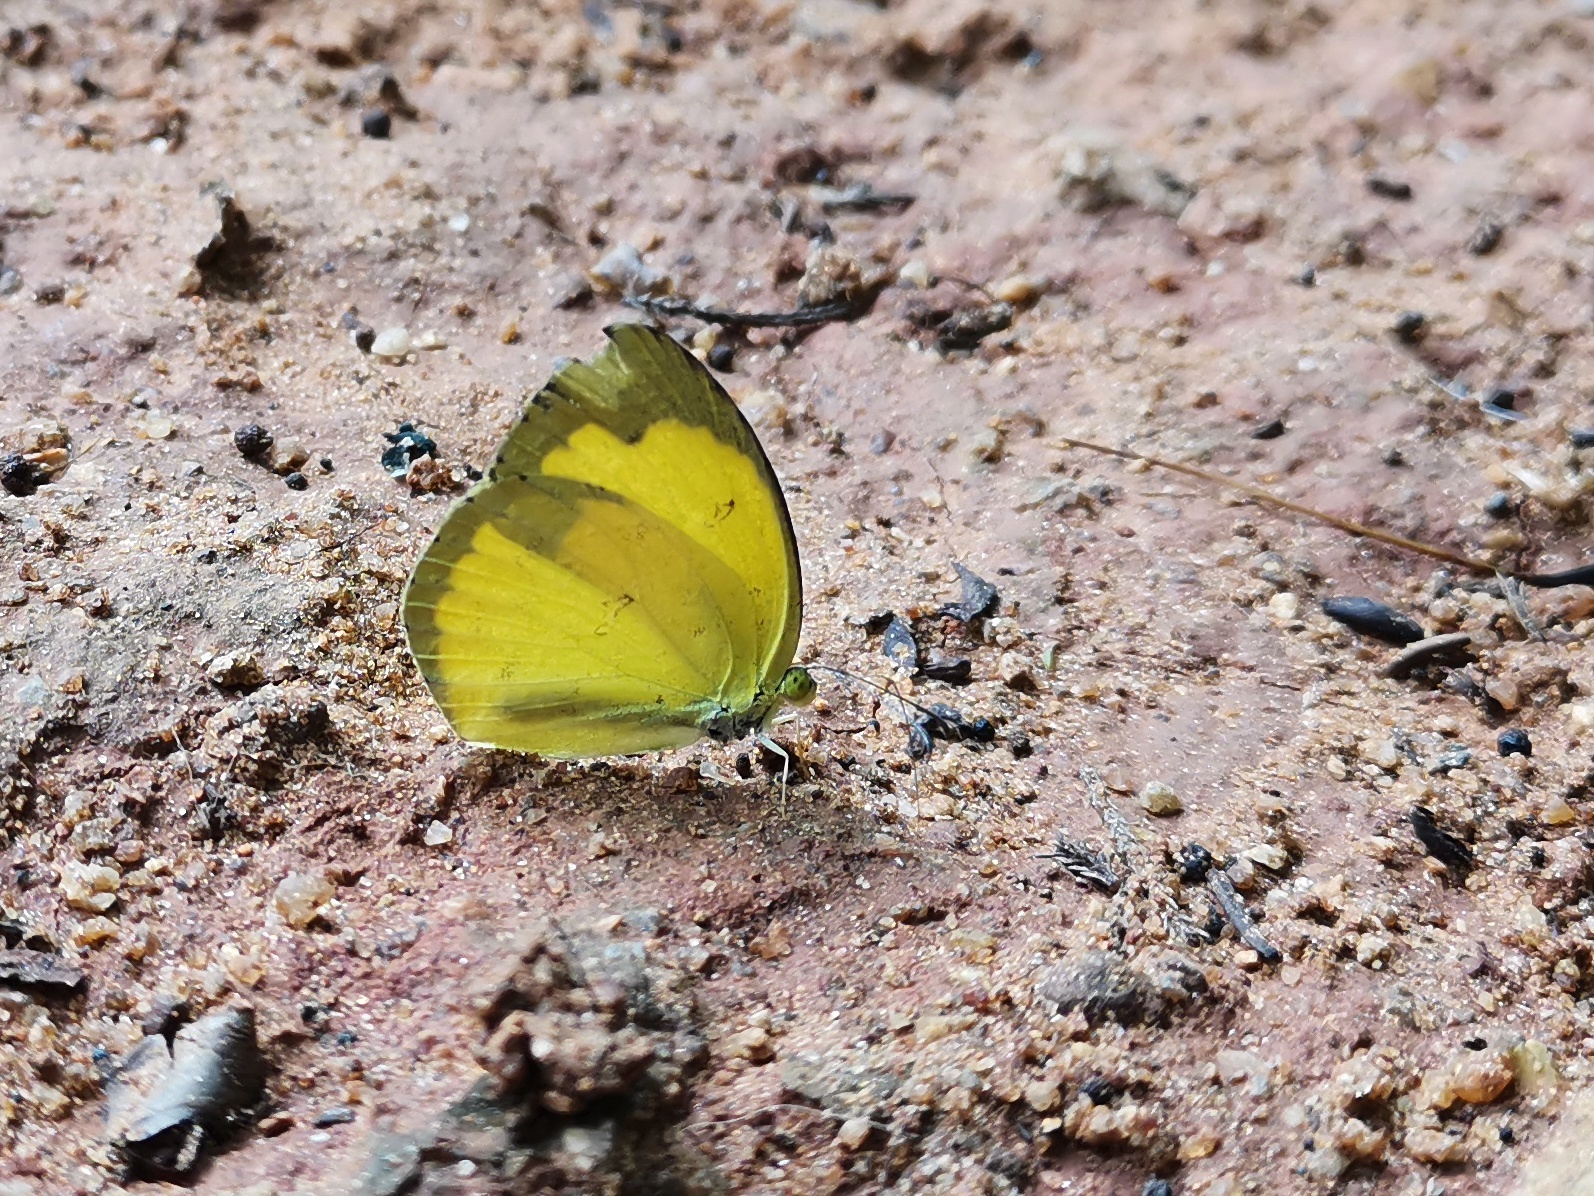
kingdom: Animalia
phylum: Arthropoda
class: Insecta
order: Lepidoptera
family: Pieridae
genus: Eurema
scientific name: Eurema hecabe
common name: Pale grass yellow
